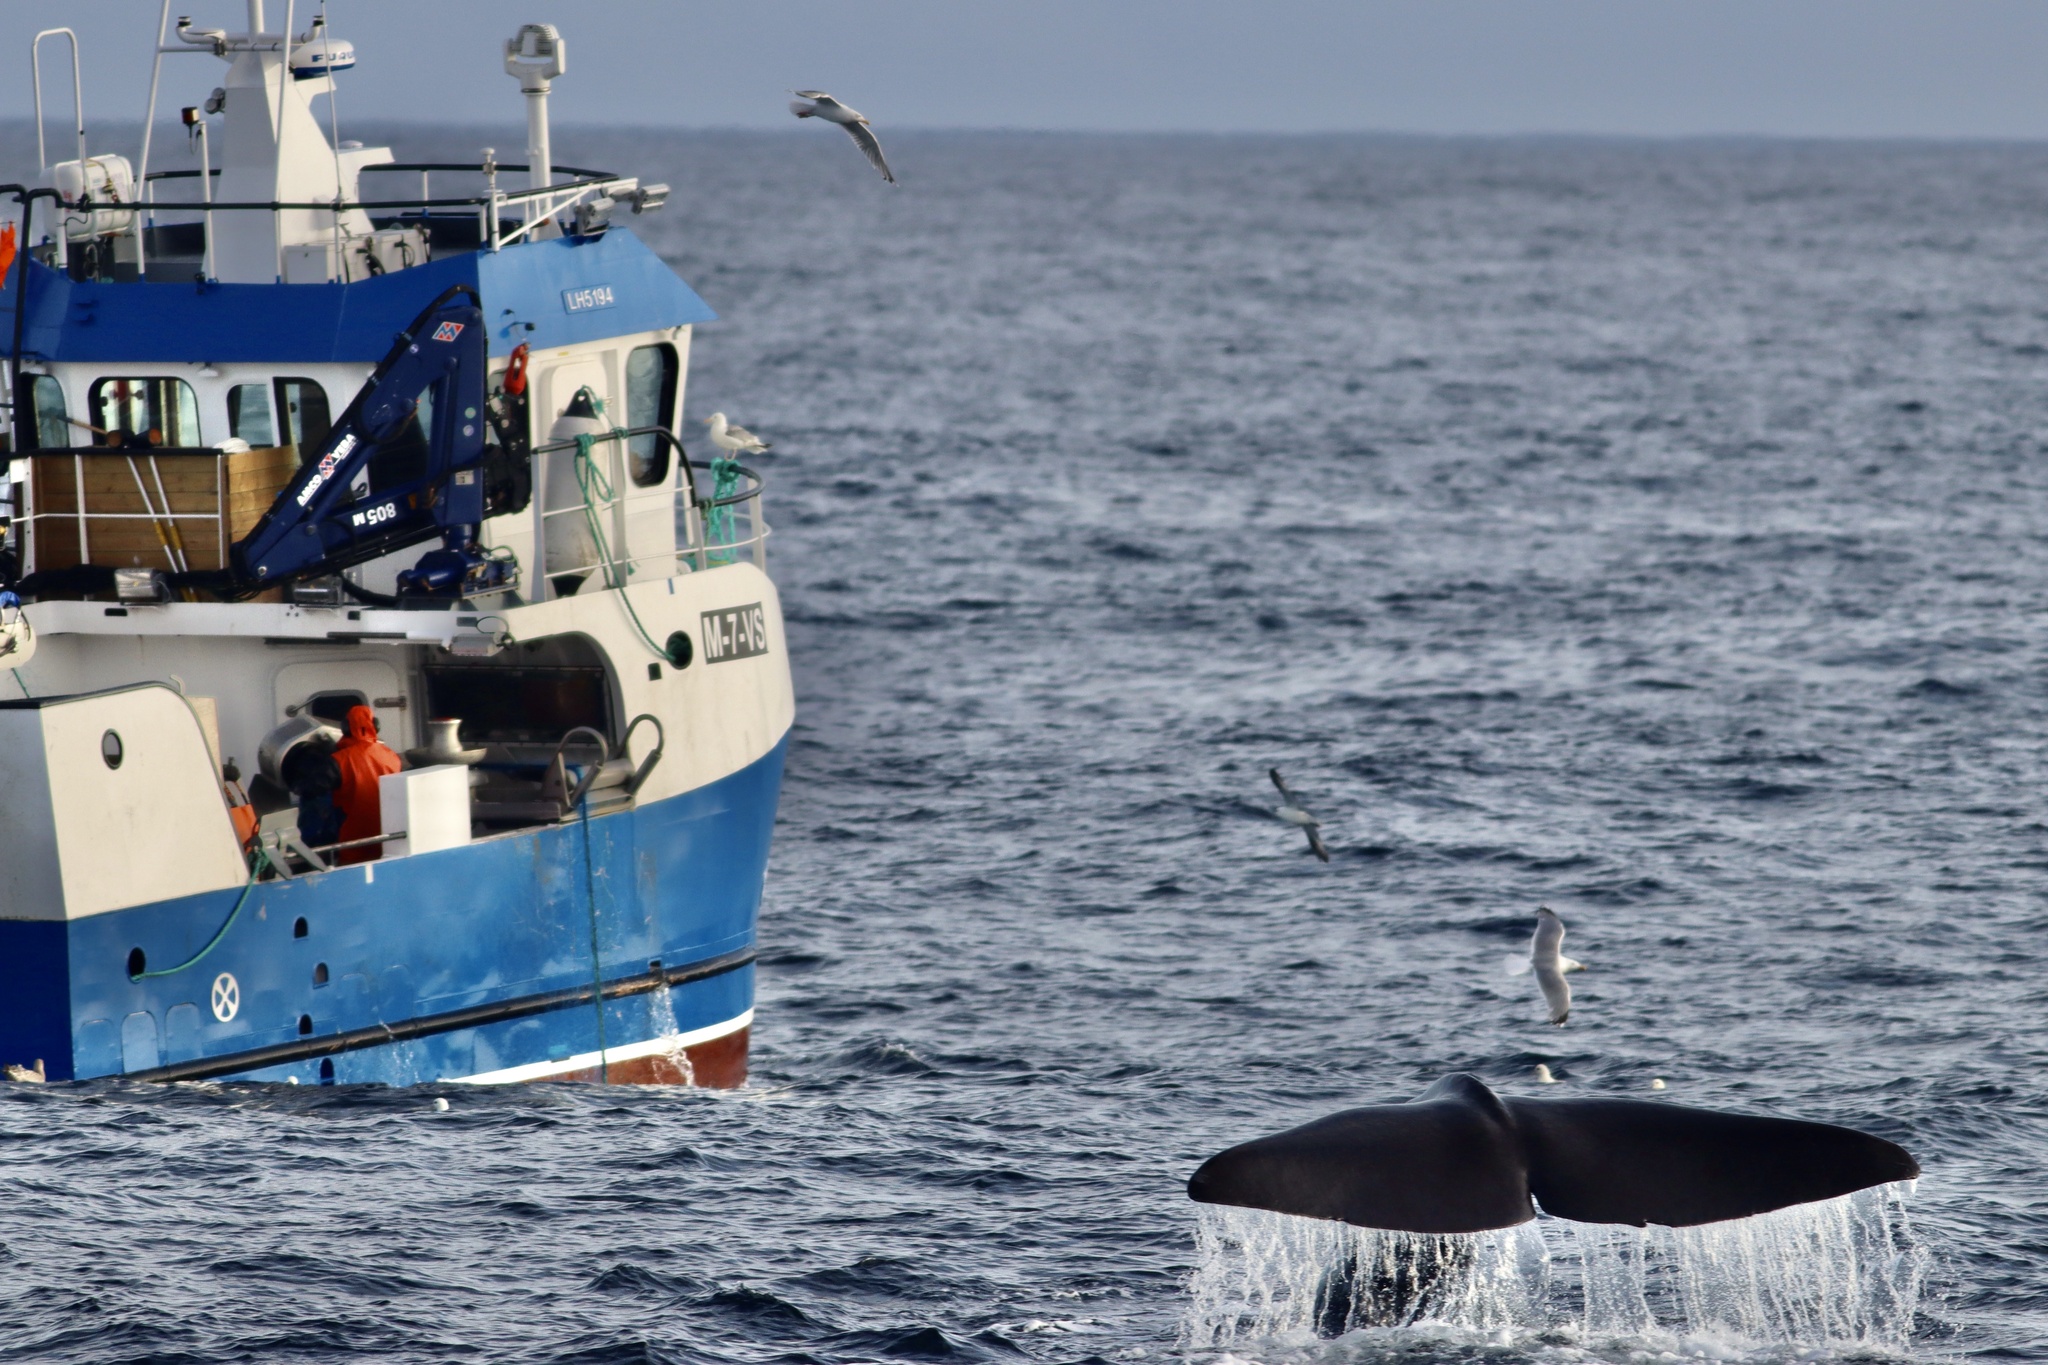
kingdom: Animalia
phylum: Chordata
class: Mammalia
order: Cetacea
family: Physeteridae
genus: Physeter
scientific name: Physeter macrocephalus
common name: Sperm whale
